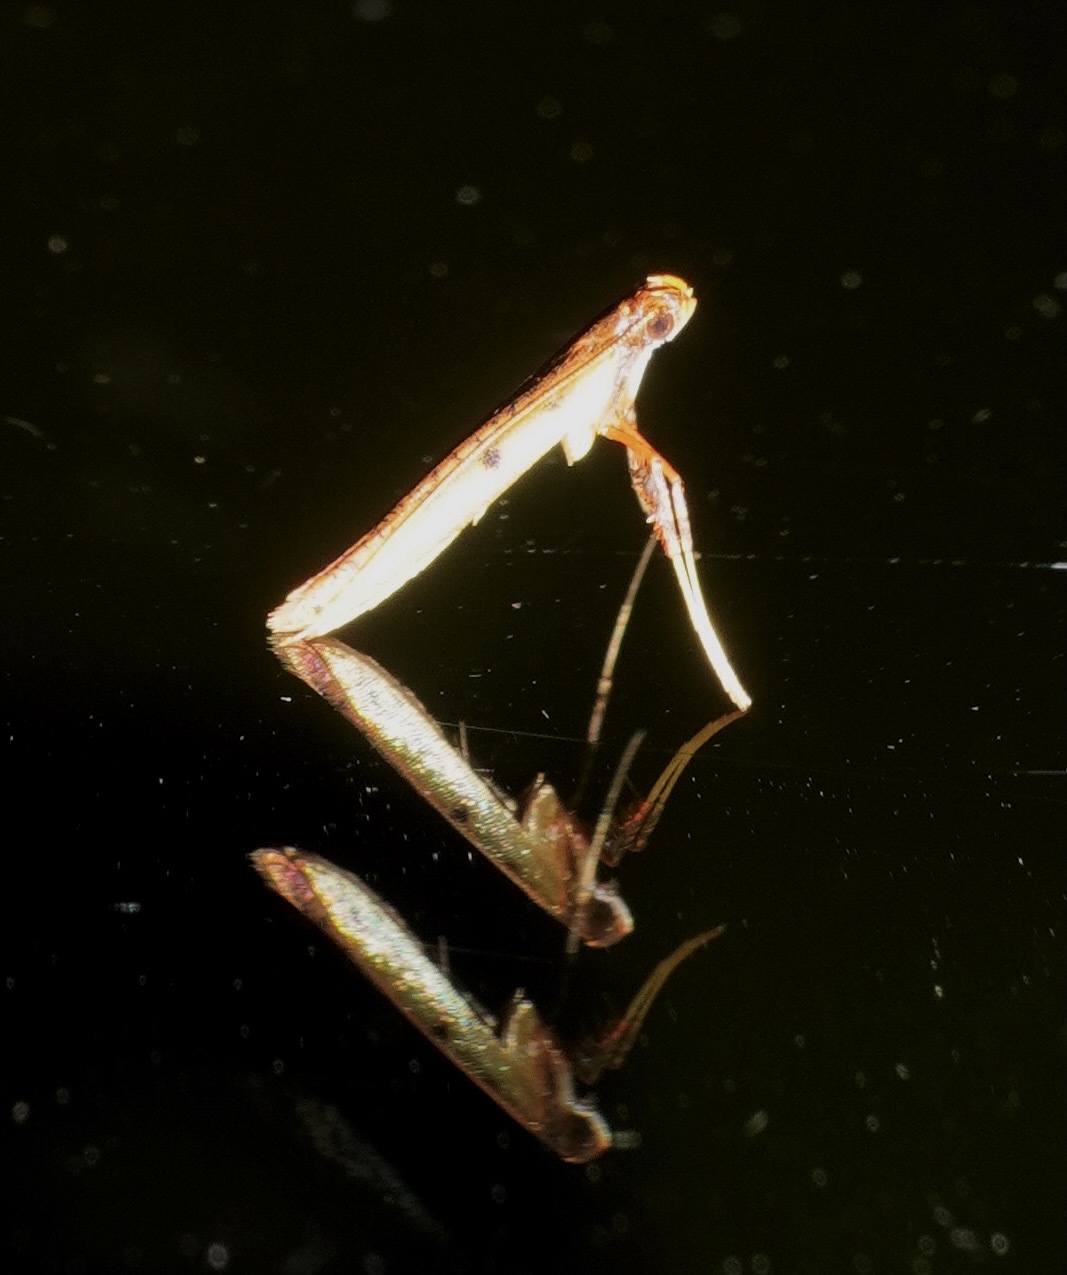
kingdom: Animalia
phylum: Arthropoda
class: Insecta
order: Lepidoptera
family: Gracillariidae
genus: Caloptilia
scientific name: Caloptilia chrysitis
